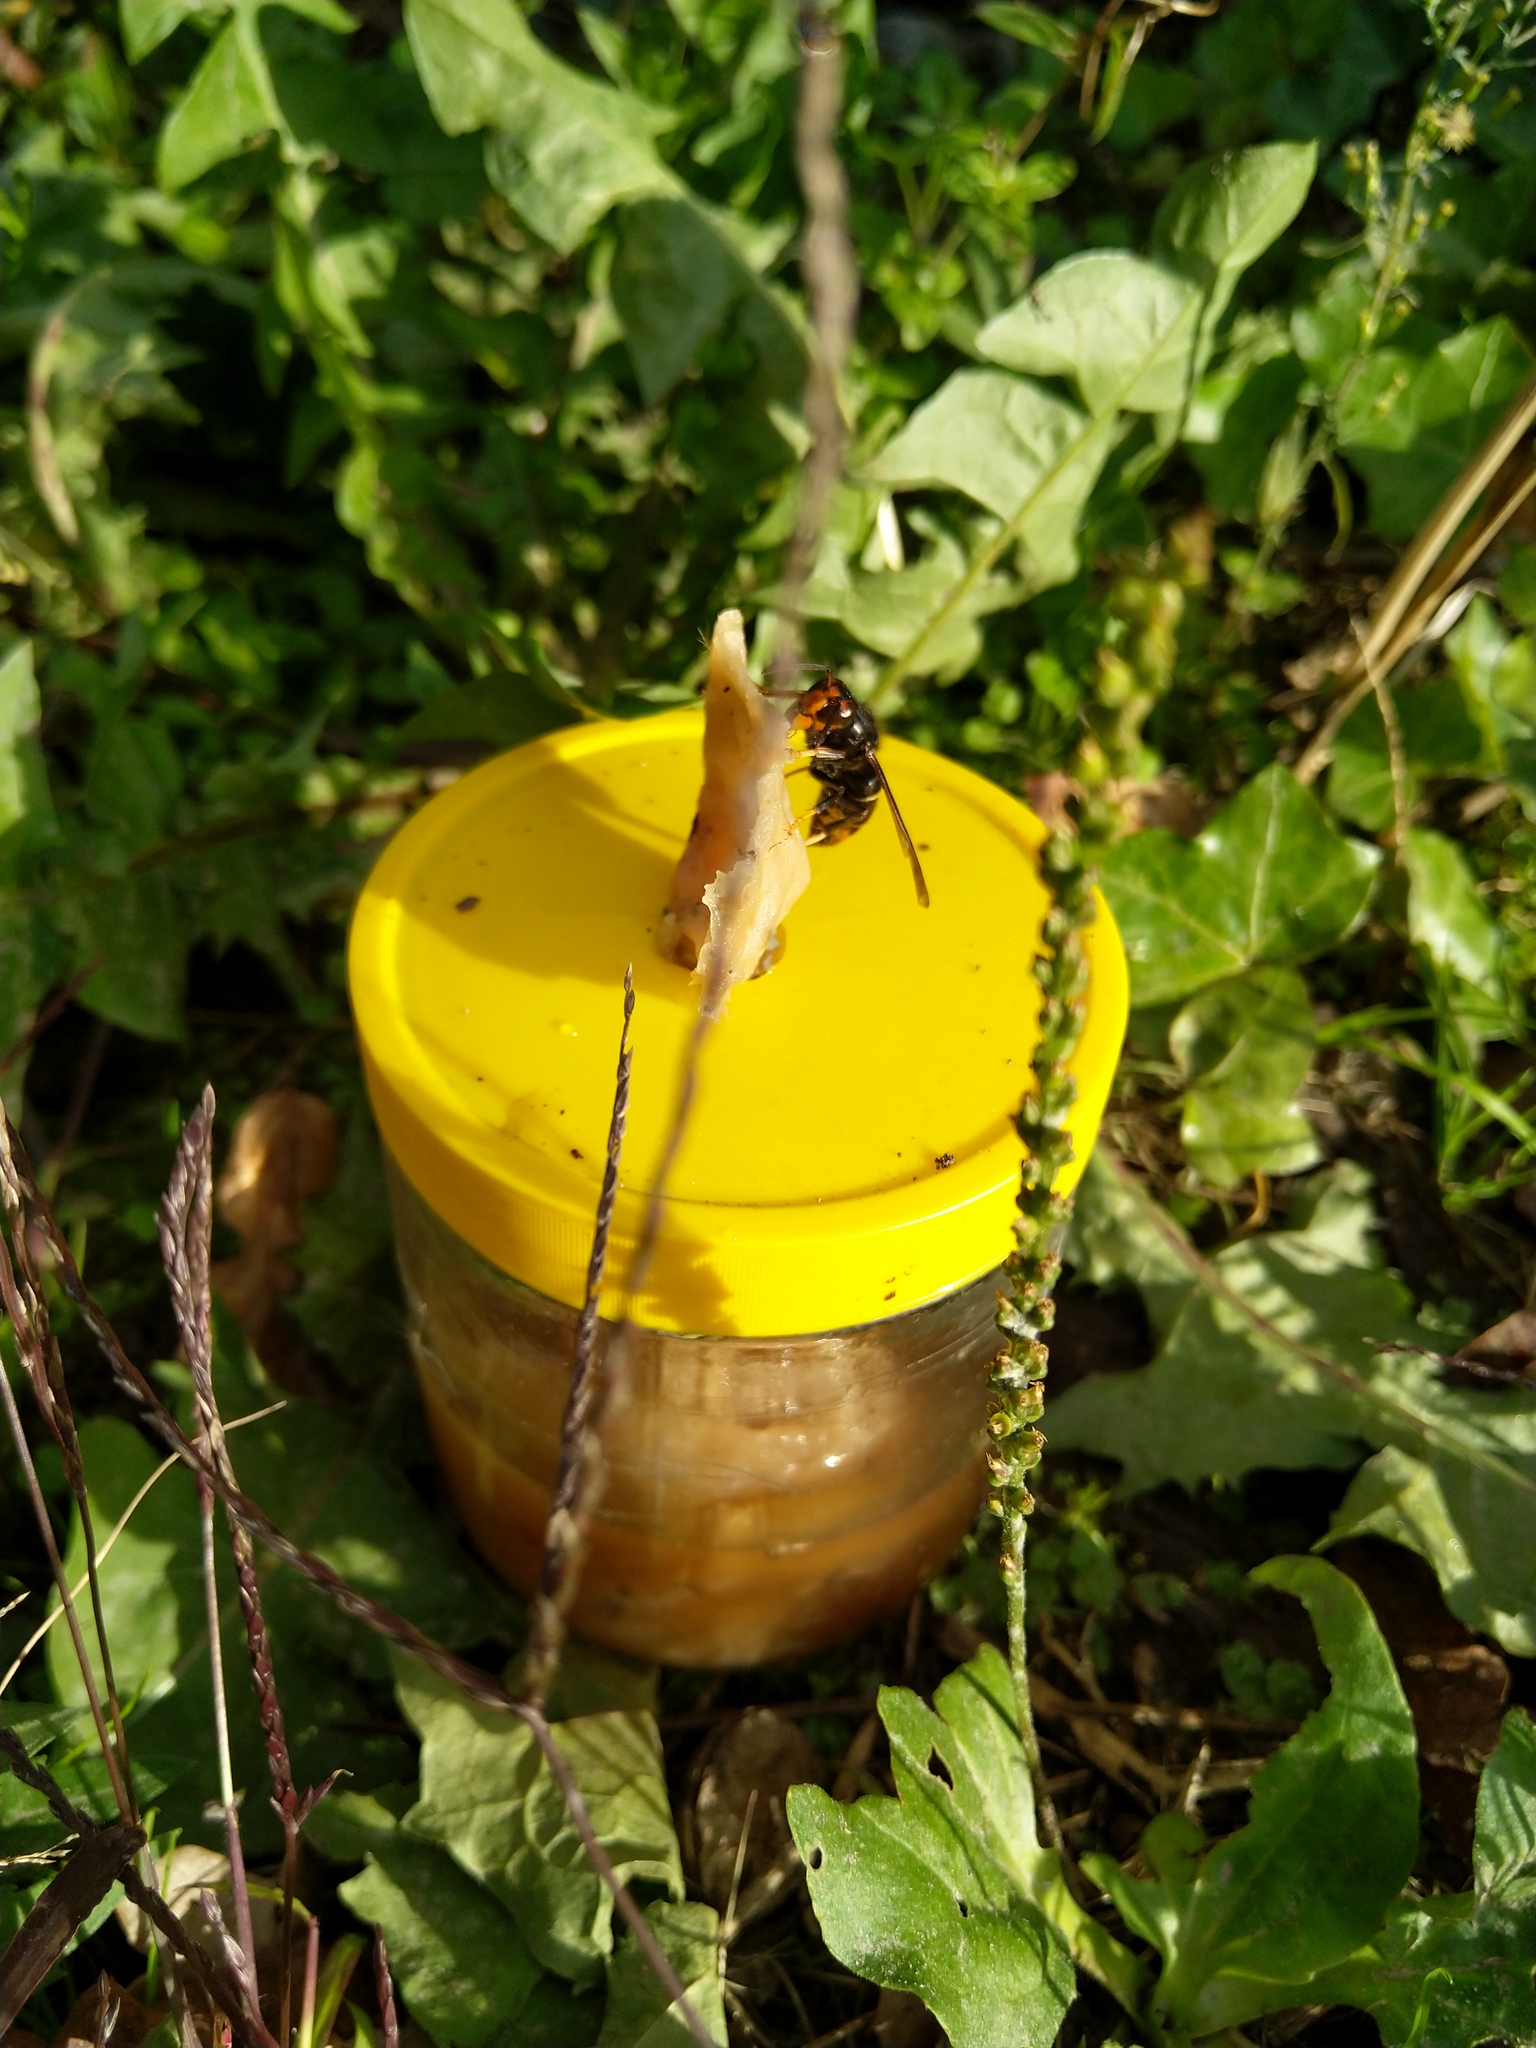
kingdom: Animalia
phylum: Arthropoda
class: Insecta
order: Hymenoptera
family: Vespidae
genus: Vespa
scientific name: Vespa velutina
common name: Asian hornet
